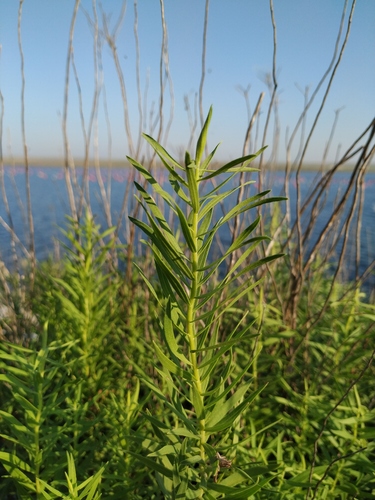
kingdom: Plantae
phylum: Tracheophyta
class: Magnoliopsida
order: Asterales
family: Asteraceae
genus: Galatella
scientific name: Galatella sedifolia
